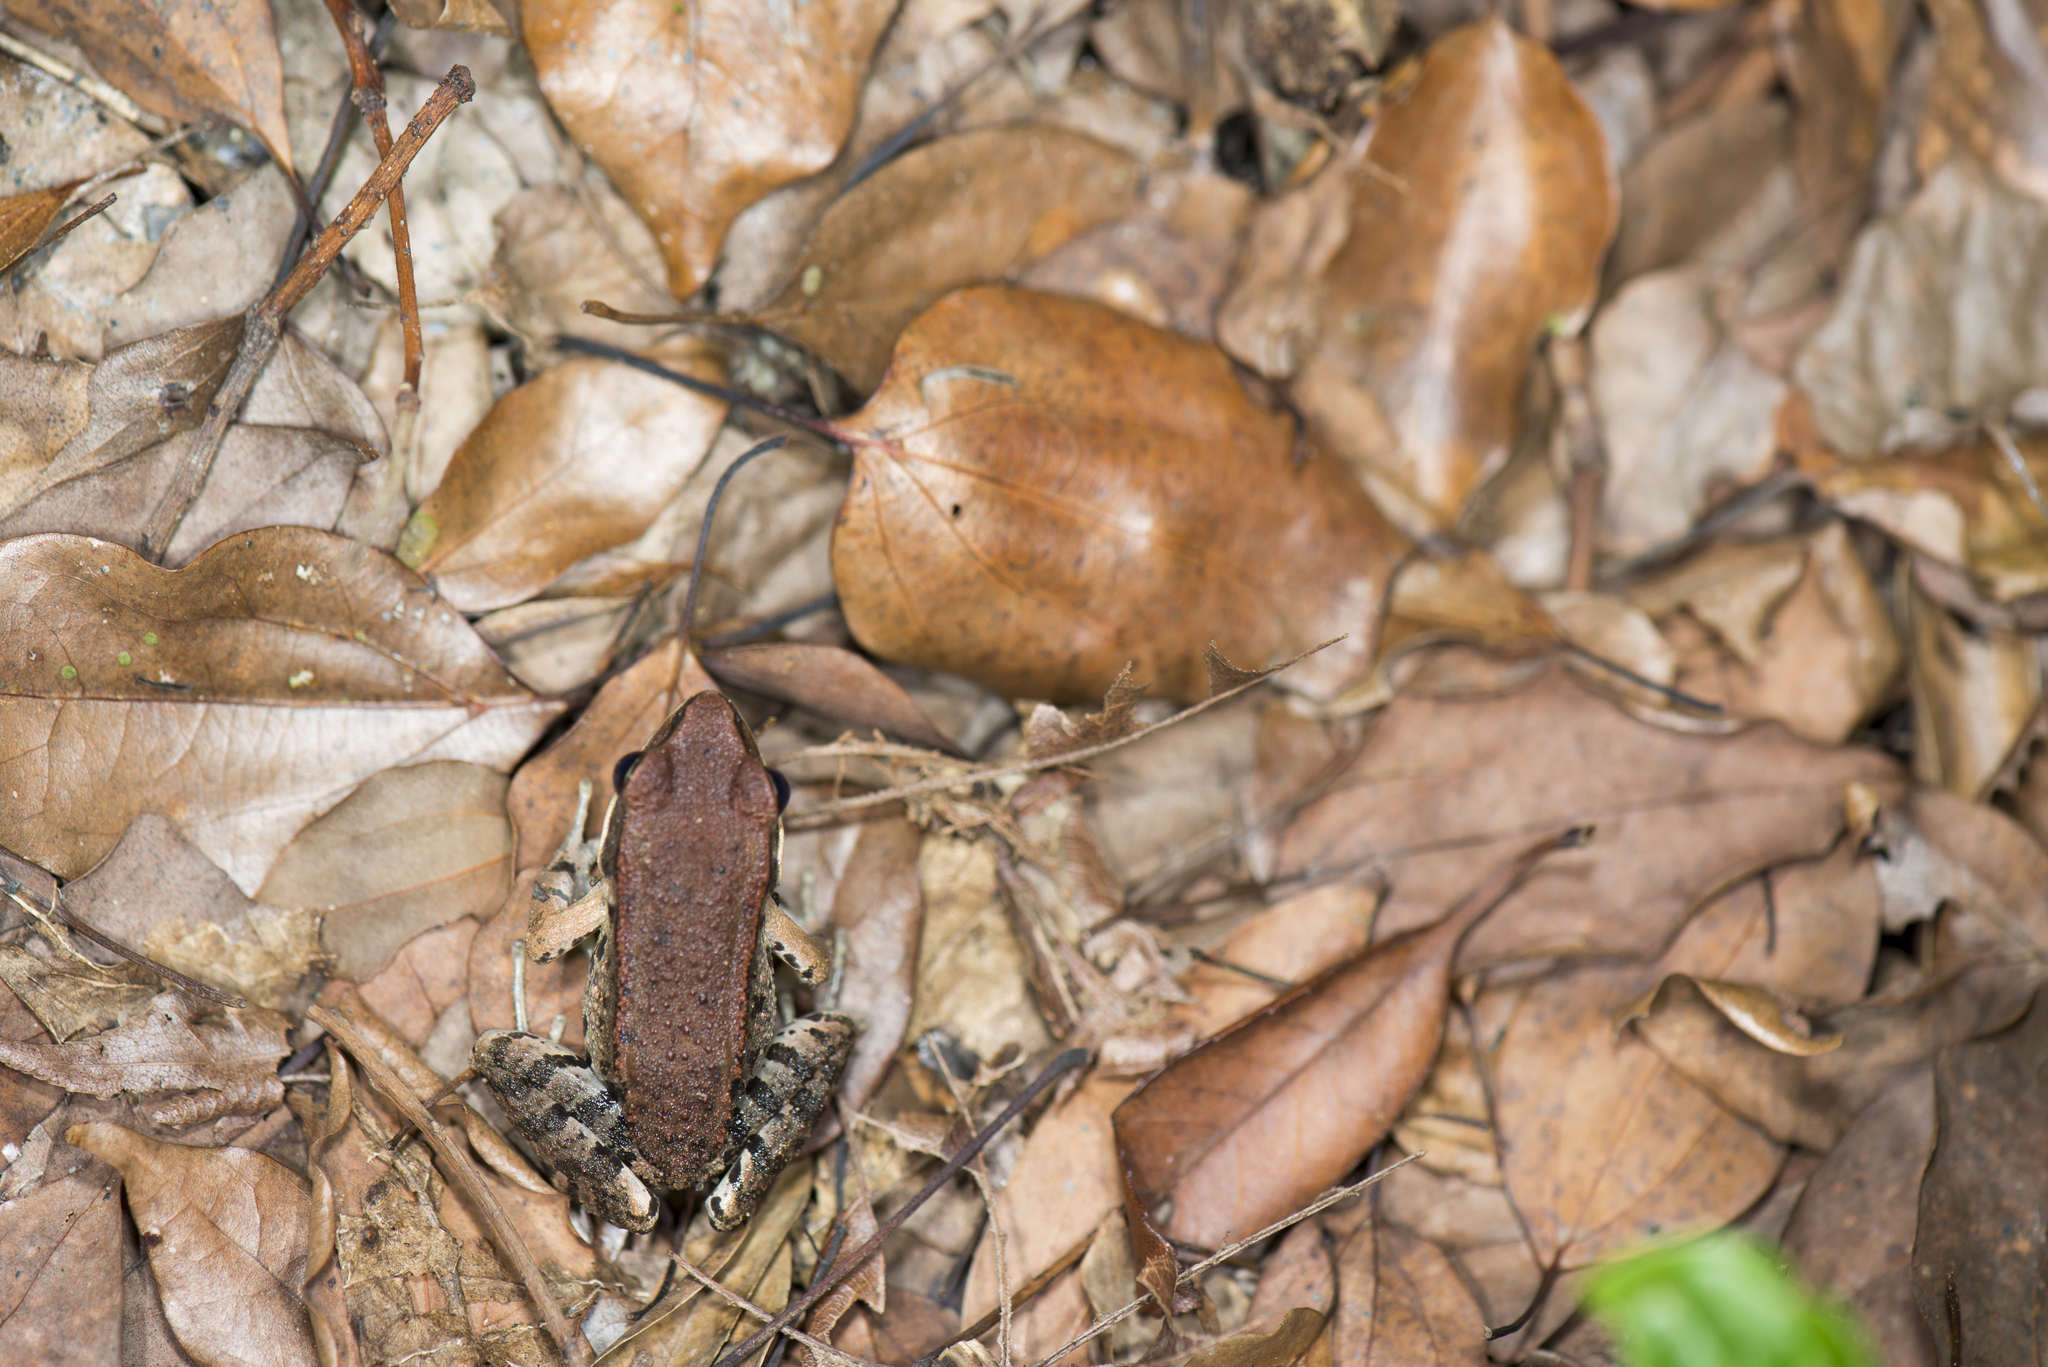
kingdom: Animalia
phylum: Chordata
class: Amphibia
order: Anura
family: Ranidae
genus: Hylarana
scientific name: Hylarana latouchii
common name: Broad-folded frog
